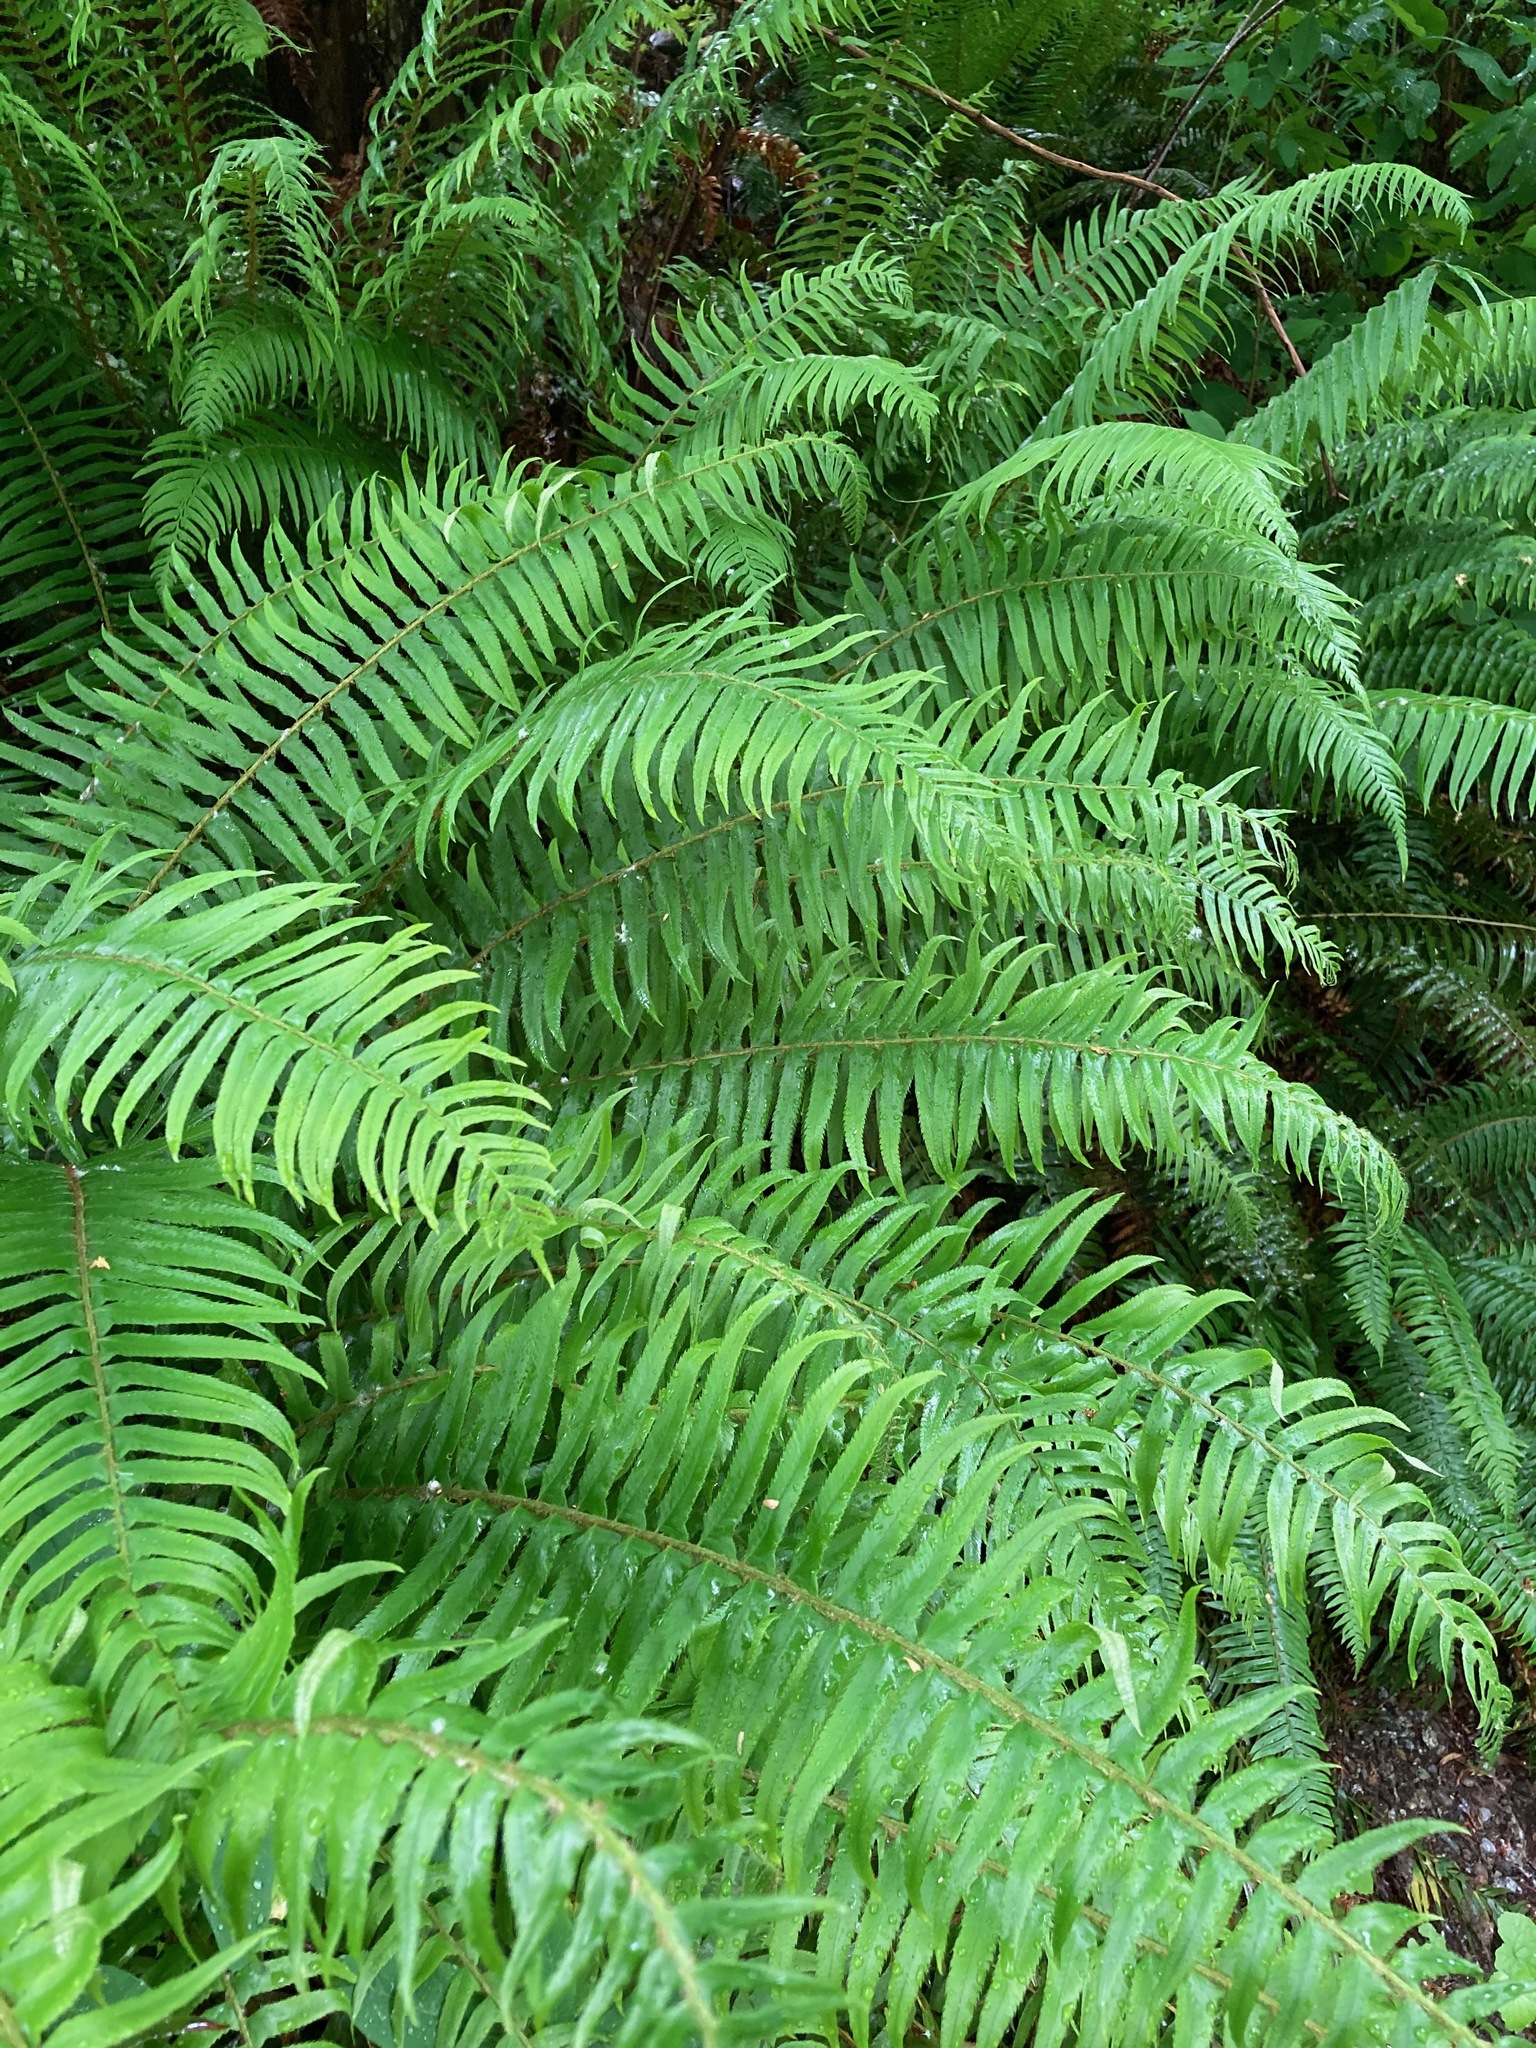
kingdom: Plantae
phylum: Tracheophyta
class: Polypodiopsida
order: Polypodiales
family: Dryopteridaceae
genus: Polystichum
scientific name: Polystichum munitum
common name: Western sword-fern
